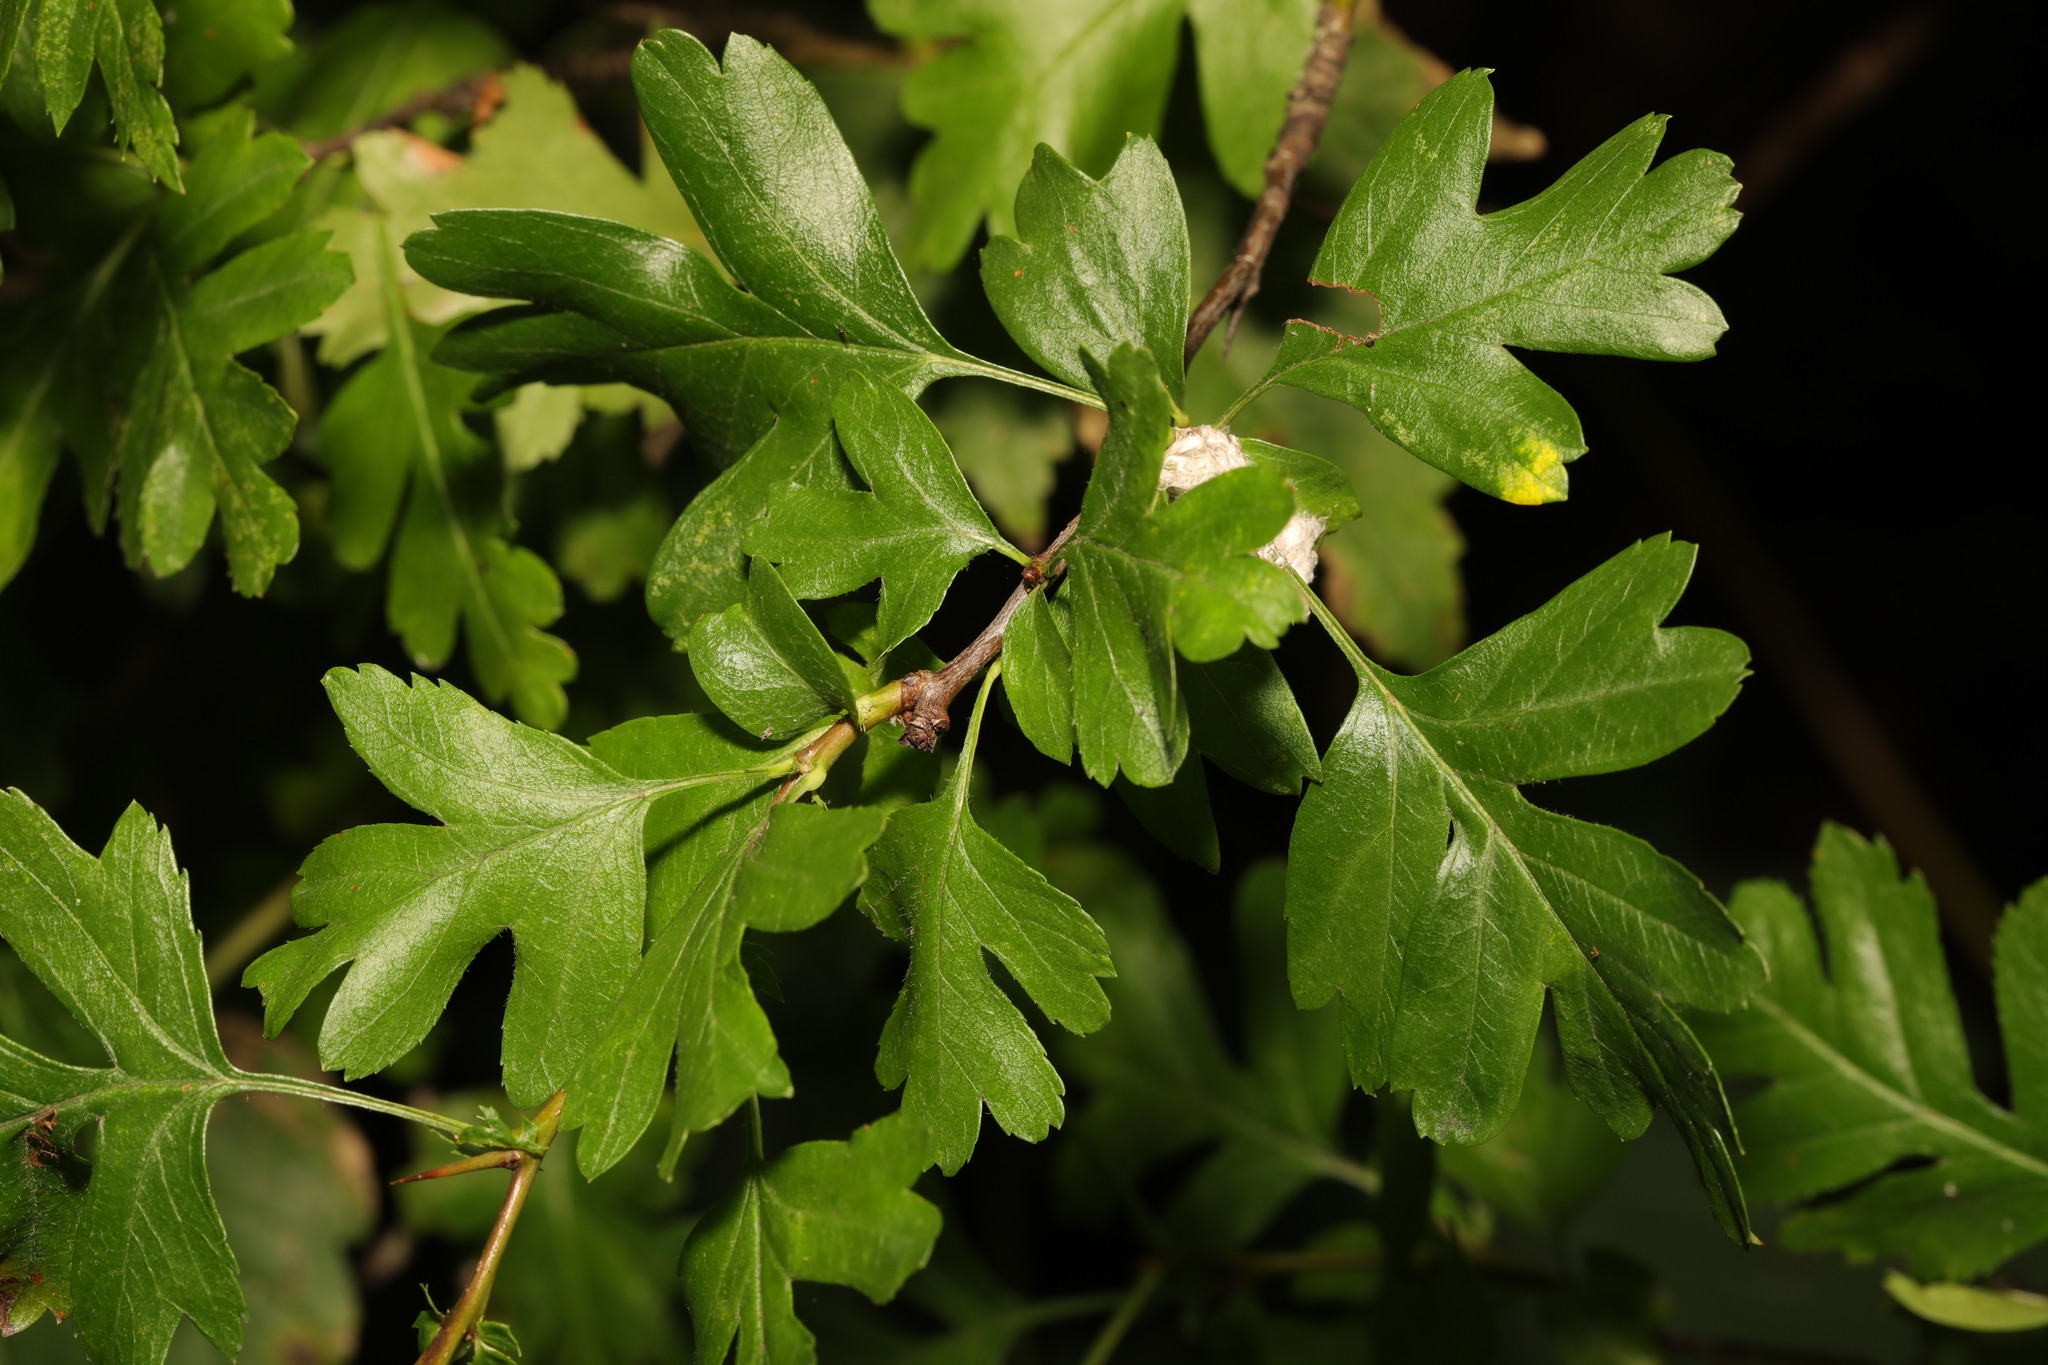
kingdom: Plantae
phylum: Tracheophyta
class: Magnoliopsida
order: Rosales
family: Rosaceae
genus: Crataegus
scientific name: Crataegus monogyna
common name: Hawthorn
